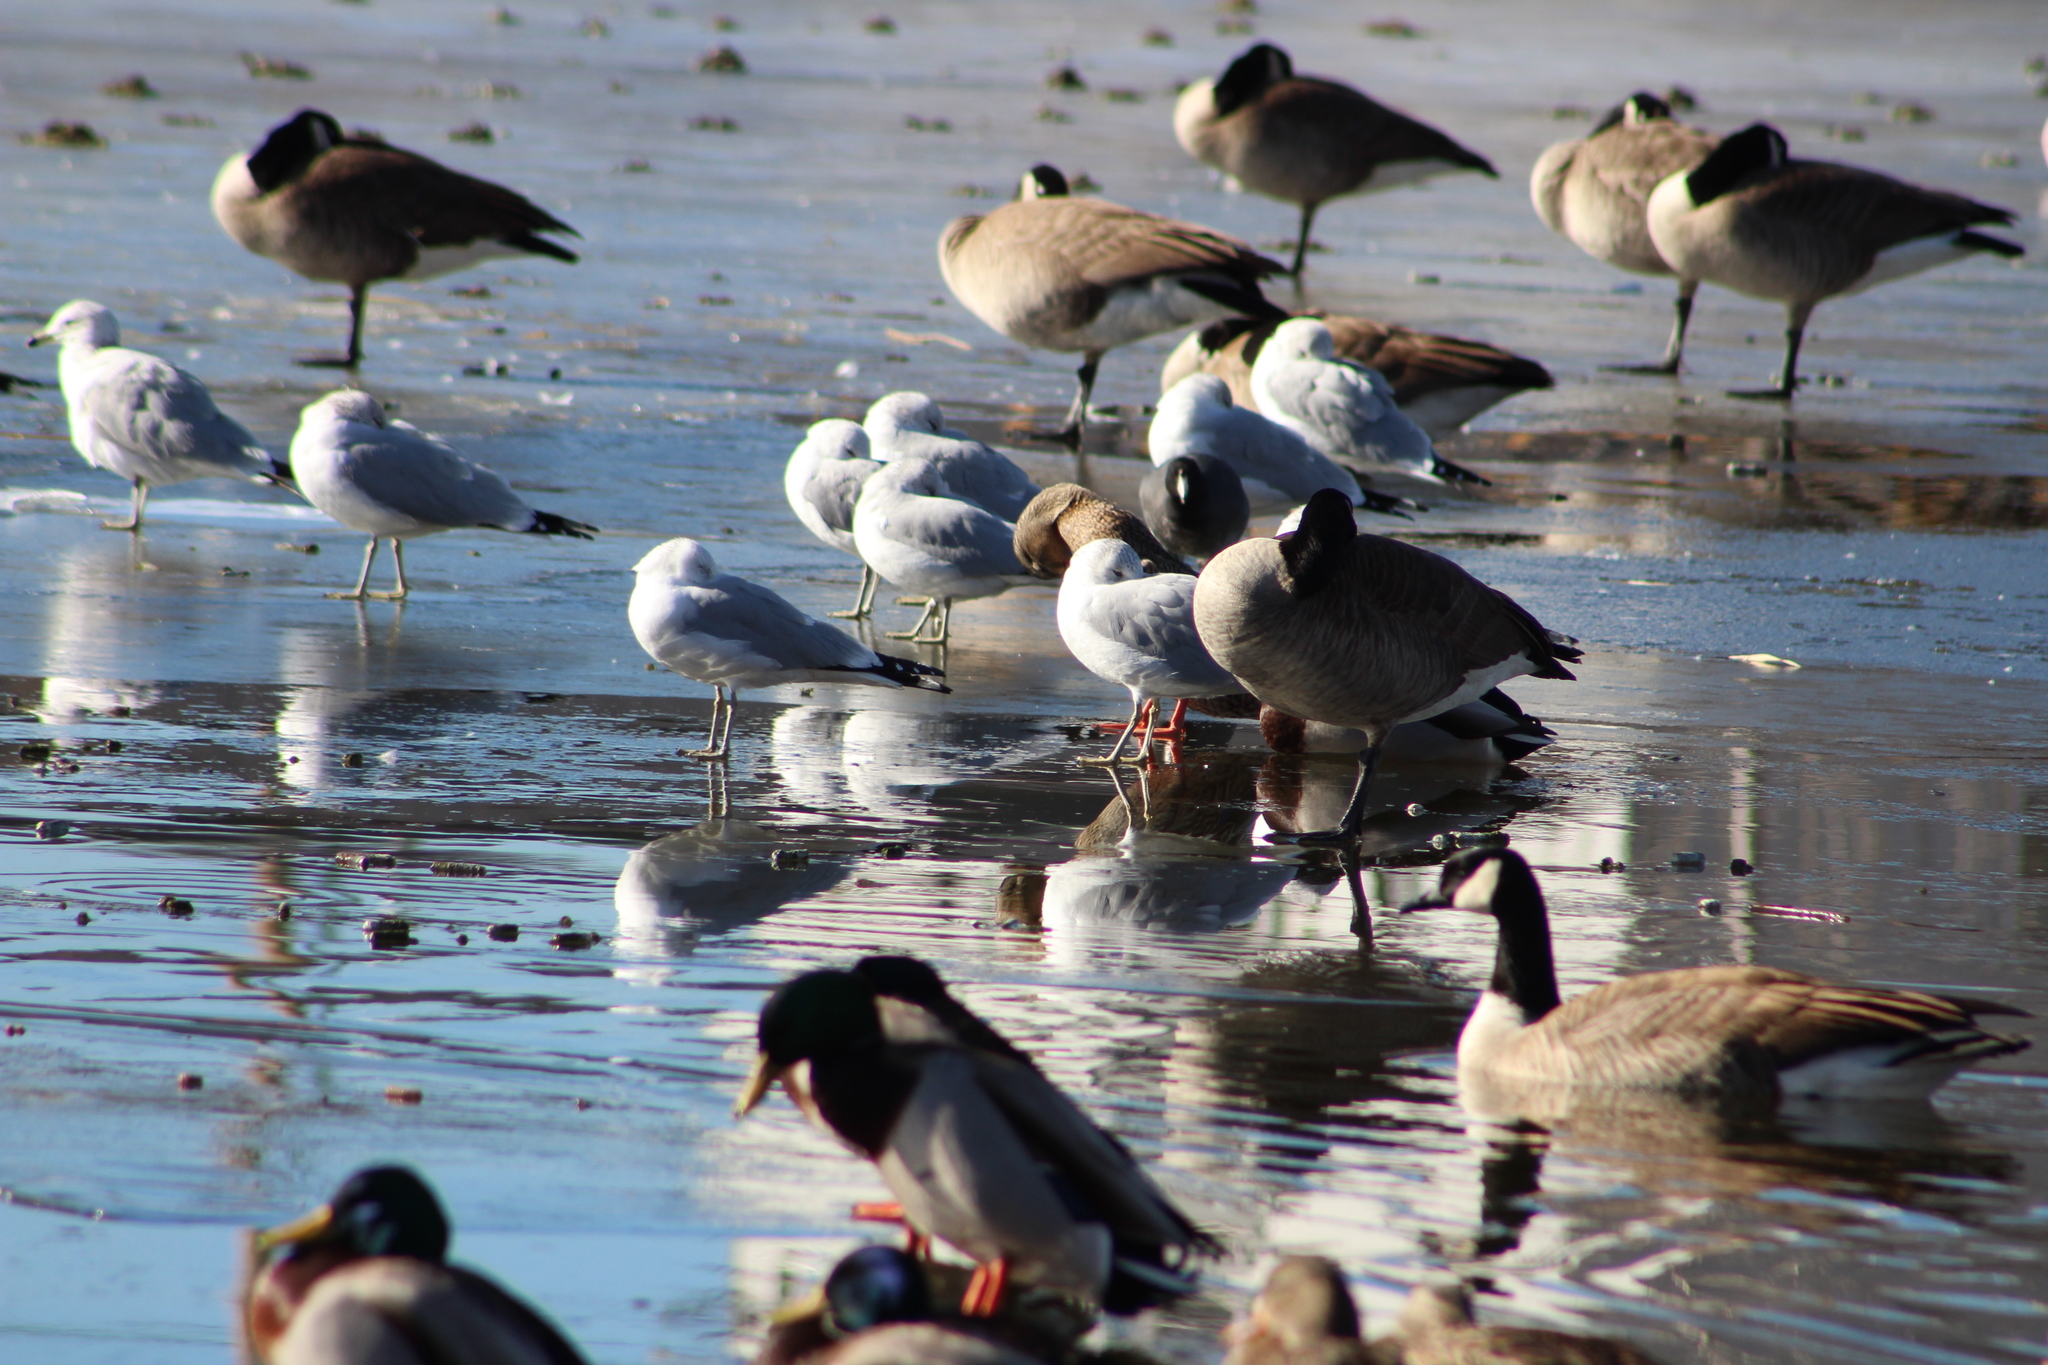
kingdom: Animalia
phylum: Chordata
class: Aves
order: Charadriiformes
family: Laridae
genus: Larus
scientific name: Larus delawarensis
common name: Ring-billed gull
